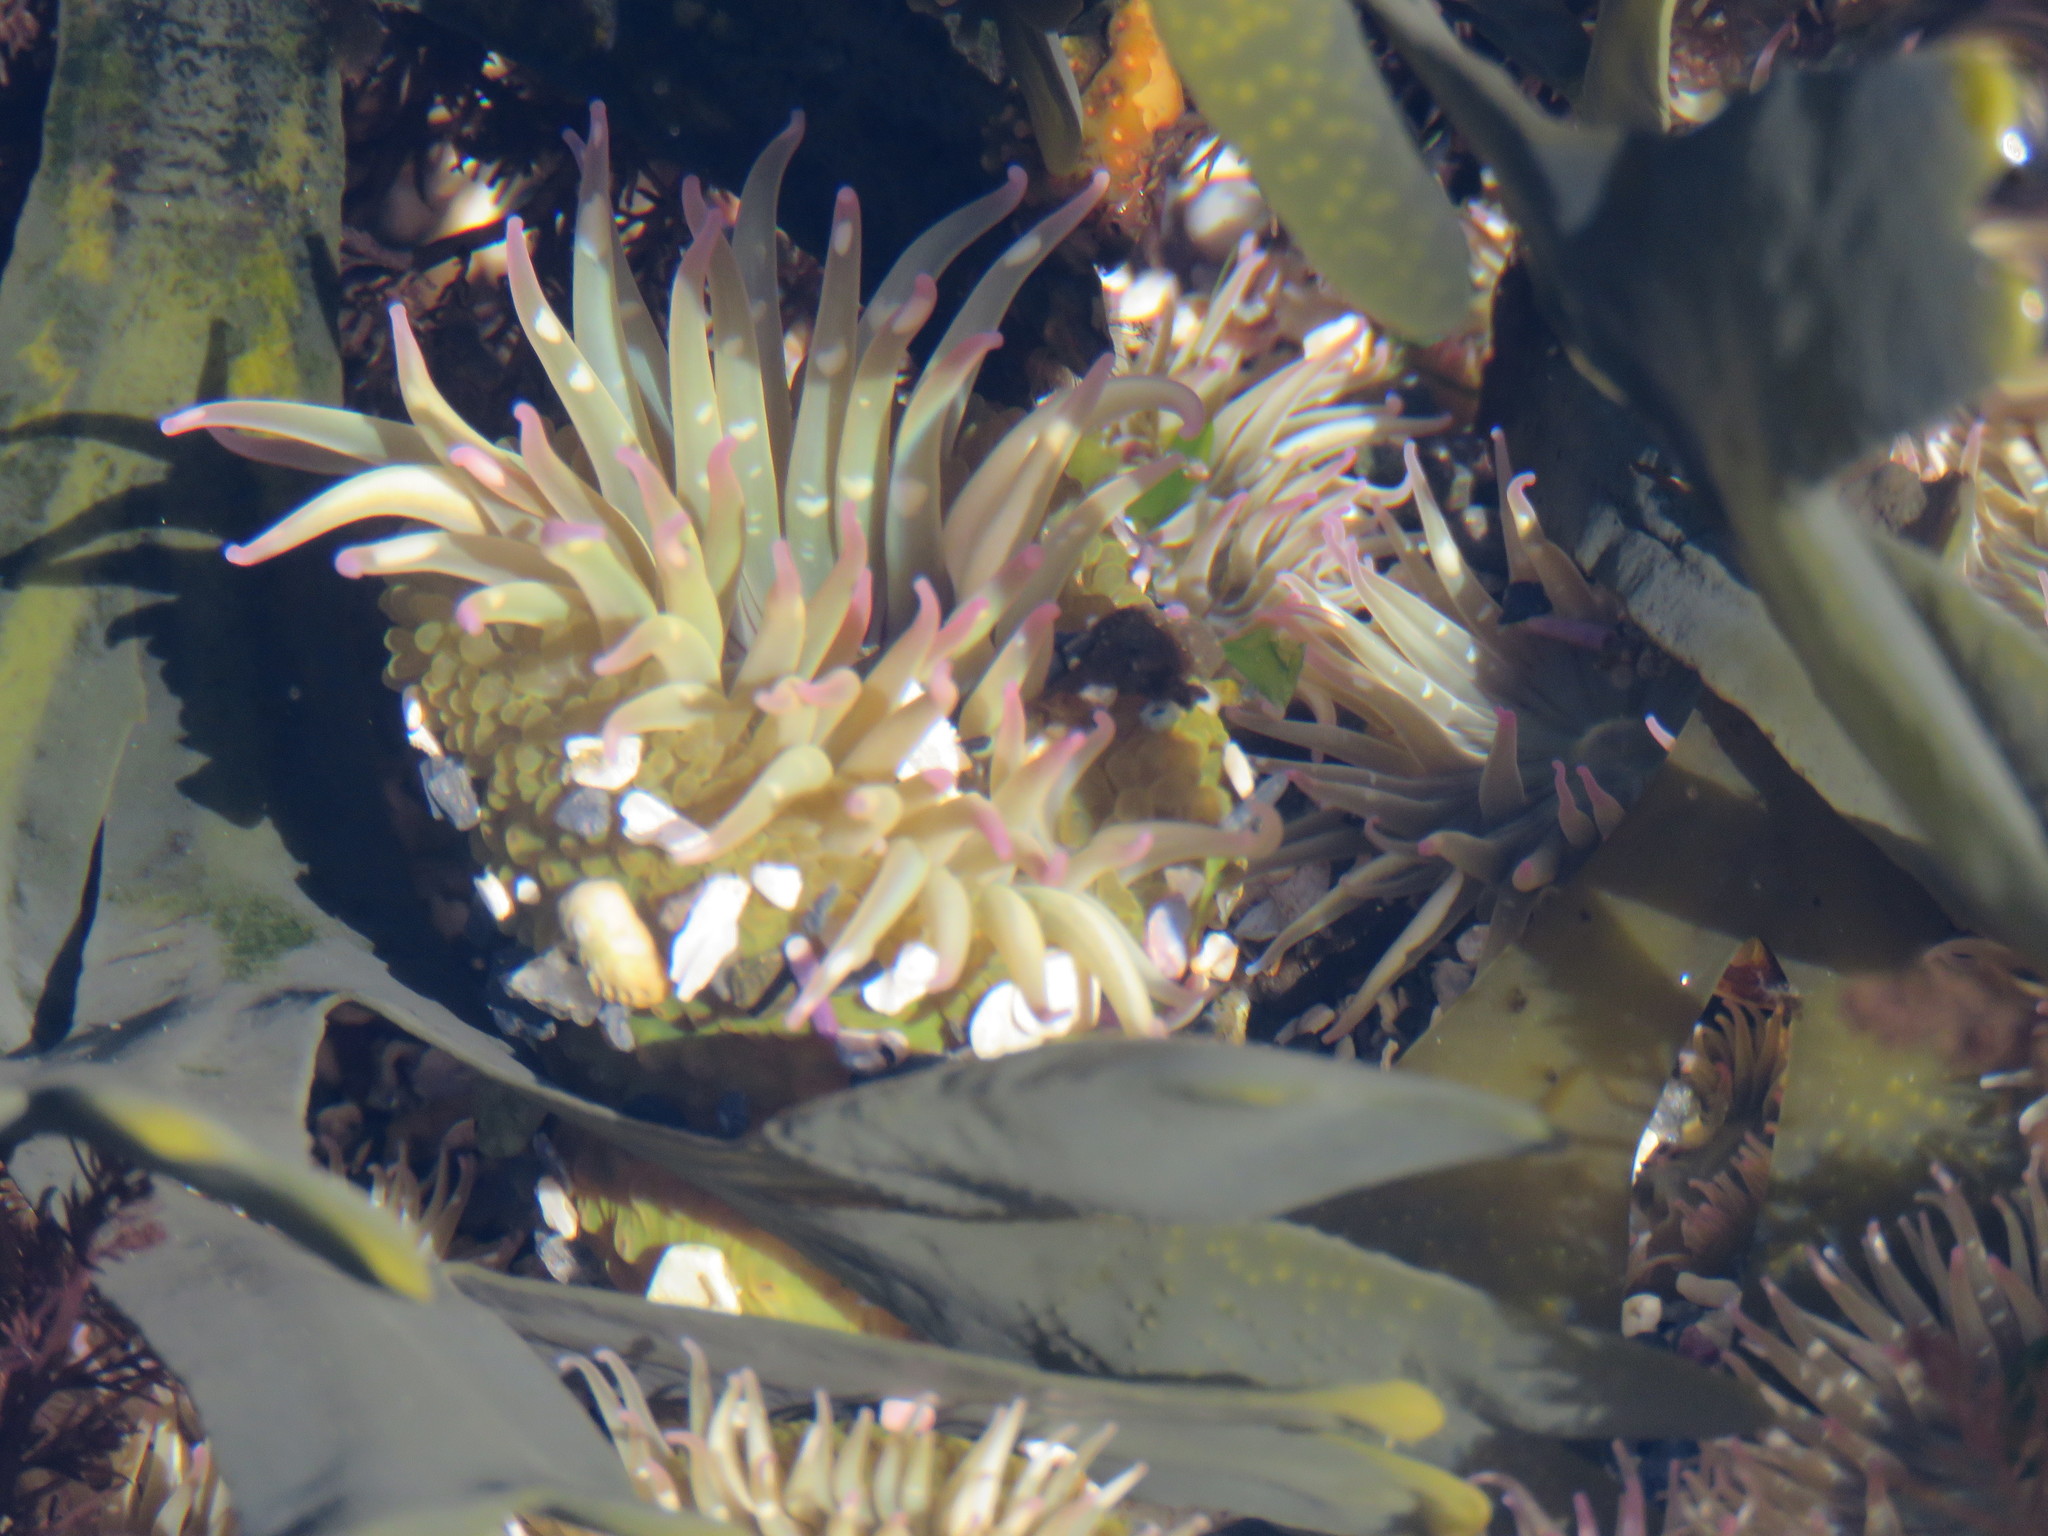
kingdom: Animalia
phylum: Cnidaria
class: Anthozoa
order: Actiniaria
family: Actiniidae
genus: Anthopleura
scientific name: Anthopleura elegantissima
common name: Clonal anemone
